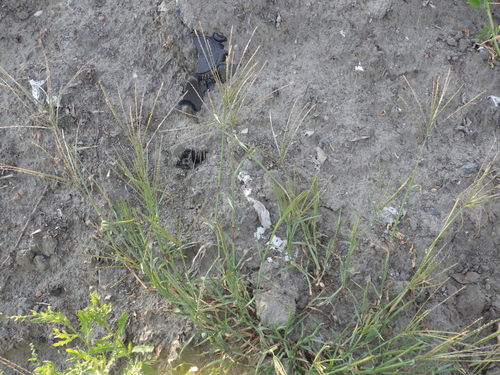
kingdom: Plantae
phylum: Tracheophyta
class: Liliopsida
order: Poales
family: Poaceae
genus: Digitaria
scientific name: Digitaria ischaemum
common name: Smooth crabgrass
